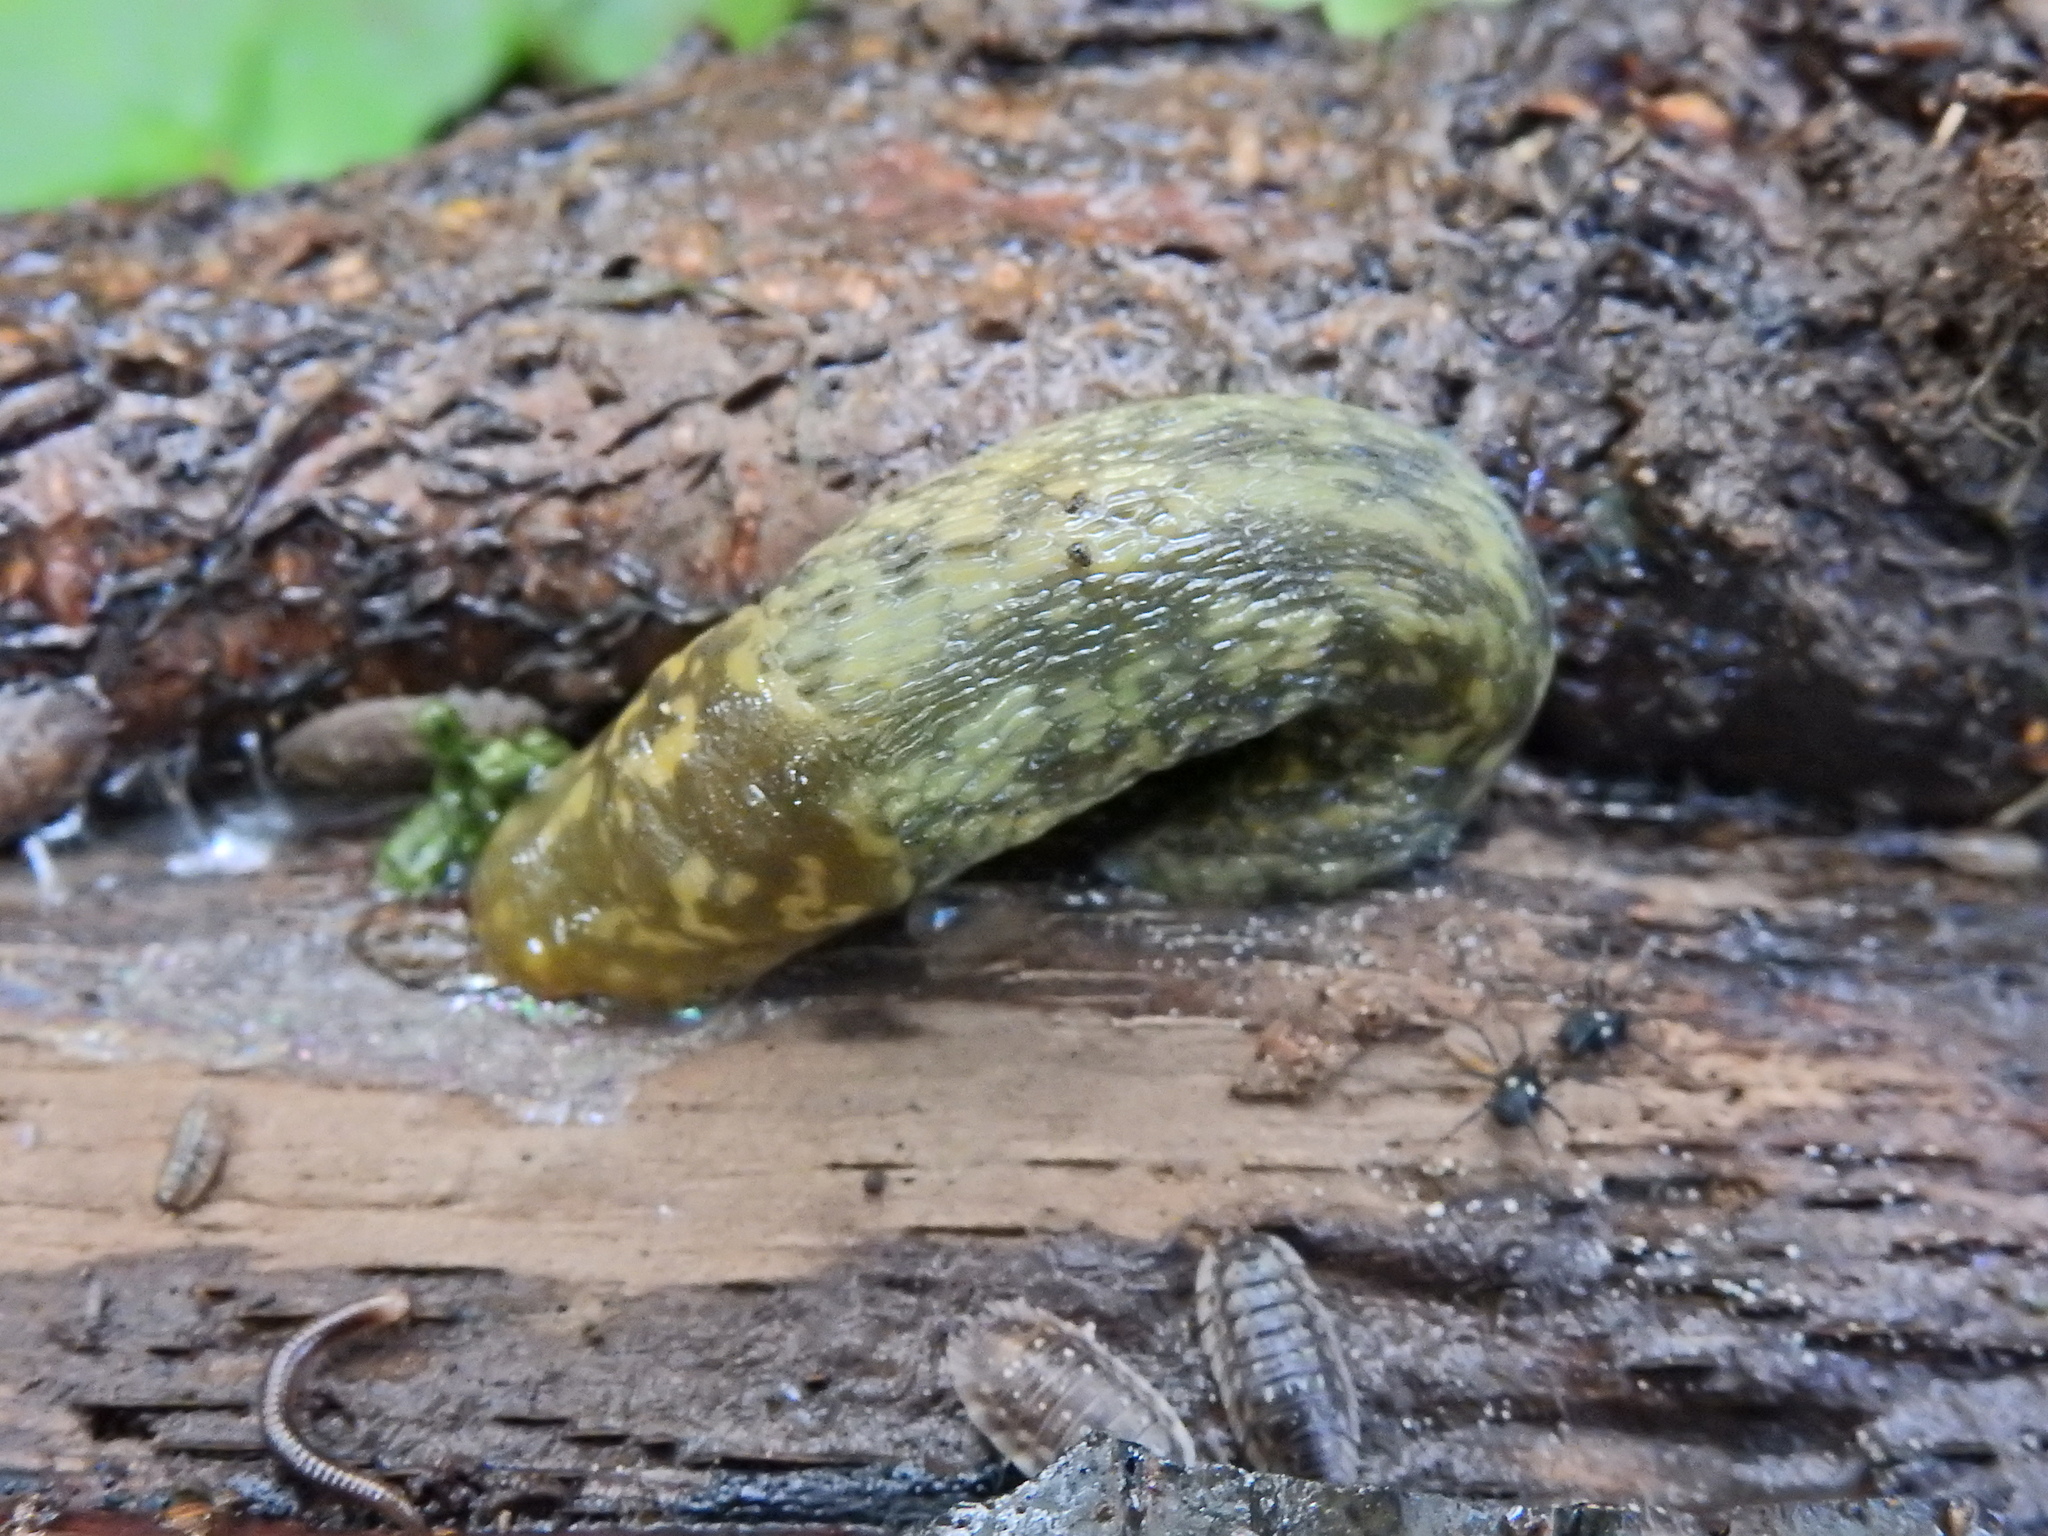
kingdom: Animalia
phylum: Mollusca
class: Gastropoda
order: Stylommatophora
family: Limacidae
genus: Limacus
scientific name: Limacus maculatus
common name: Irish yellow slug
